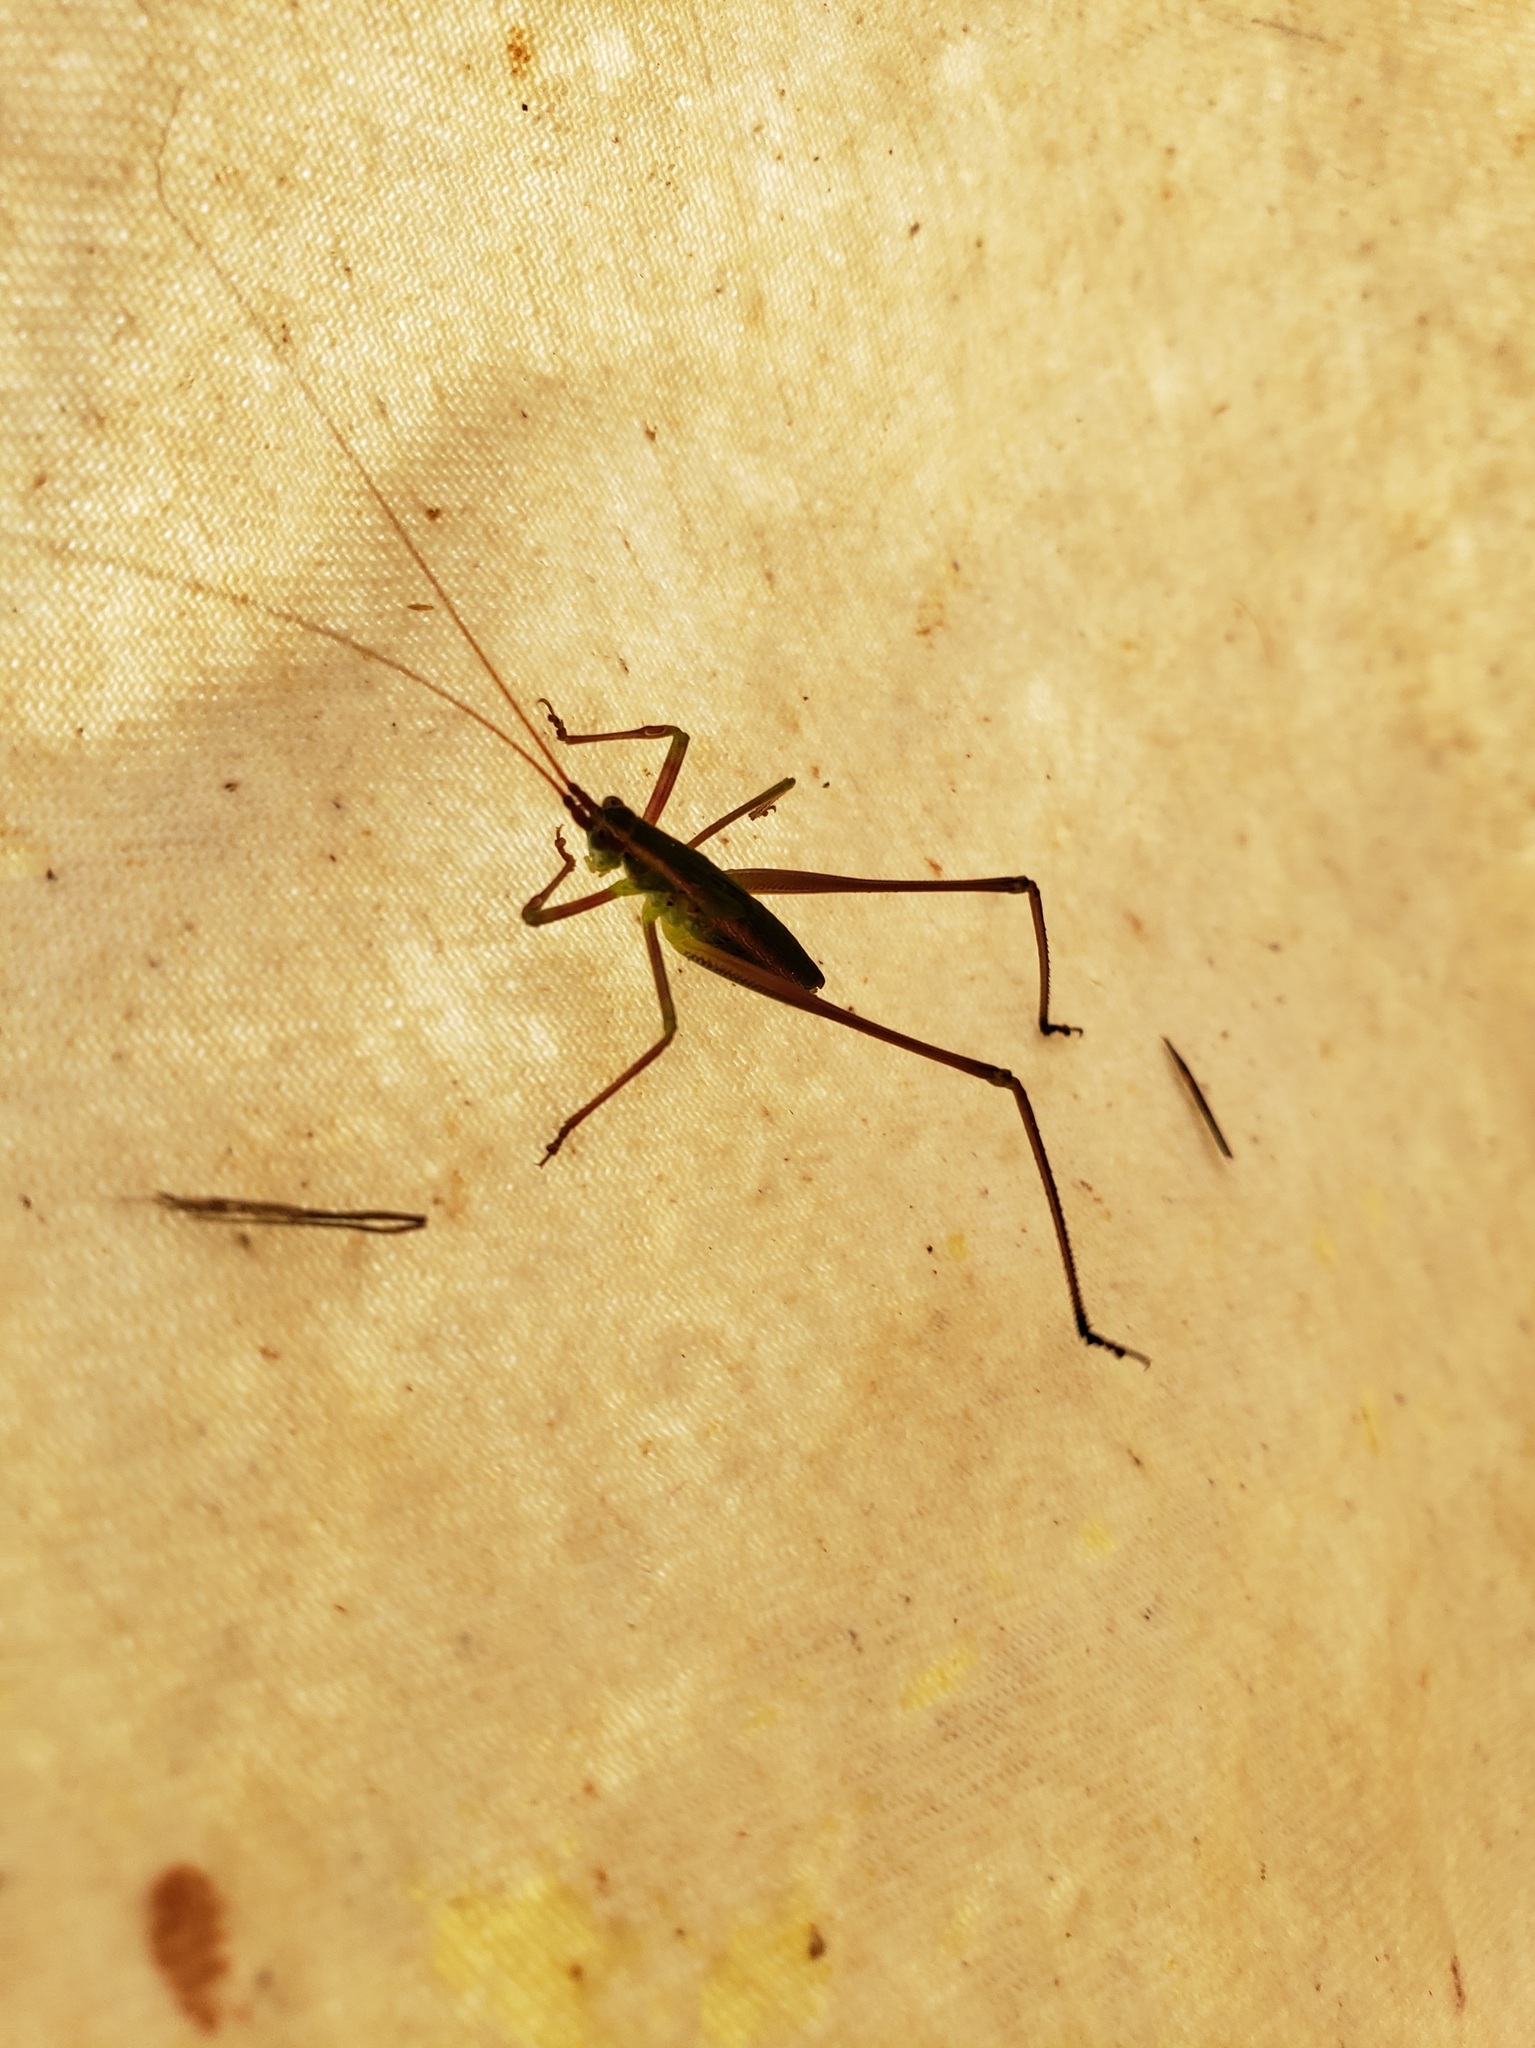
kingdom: Animalia
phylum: Arthropoda
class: Insecta
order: Orthoptera
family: Tettigoniidae
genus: Inscudderia
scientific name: Inscudderia strigata
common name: Guinea-cypress katydid
